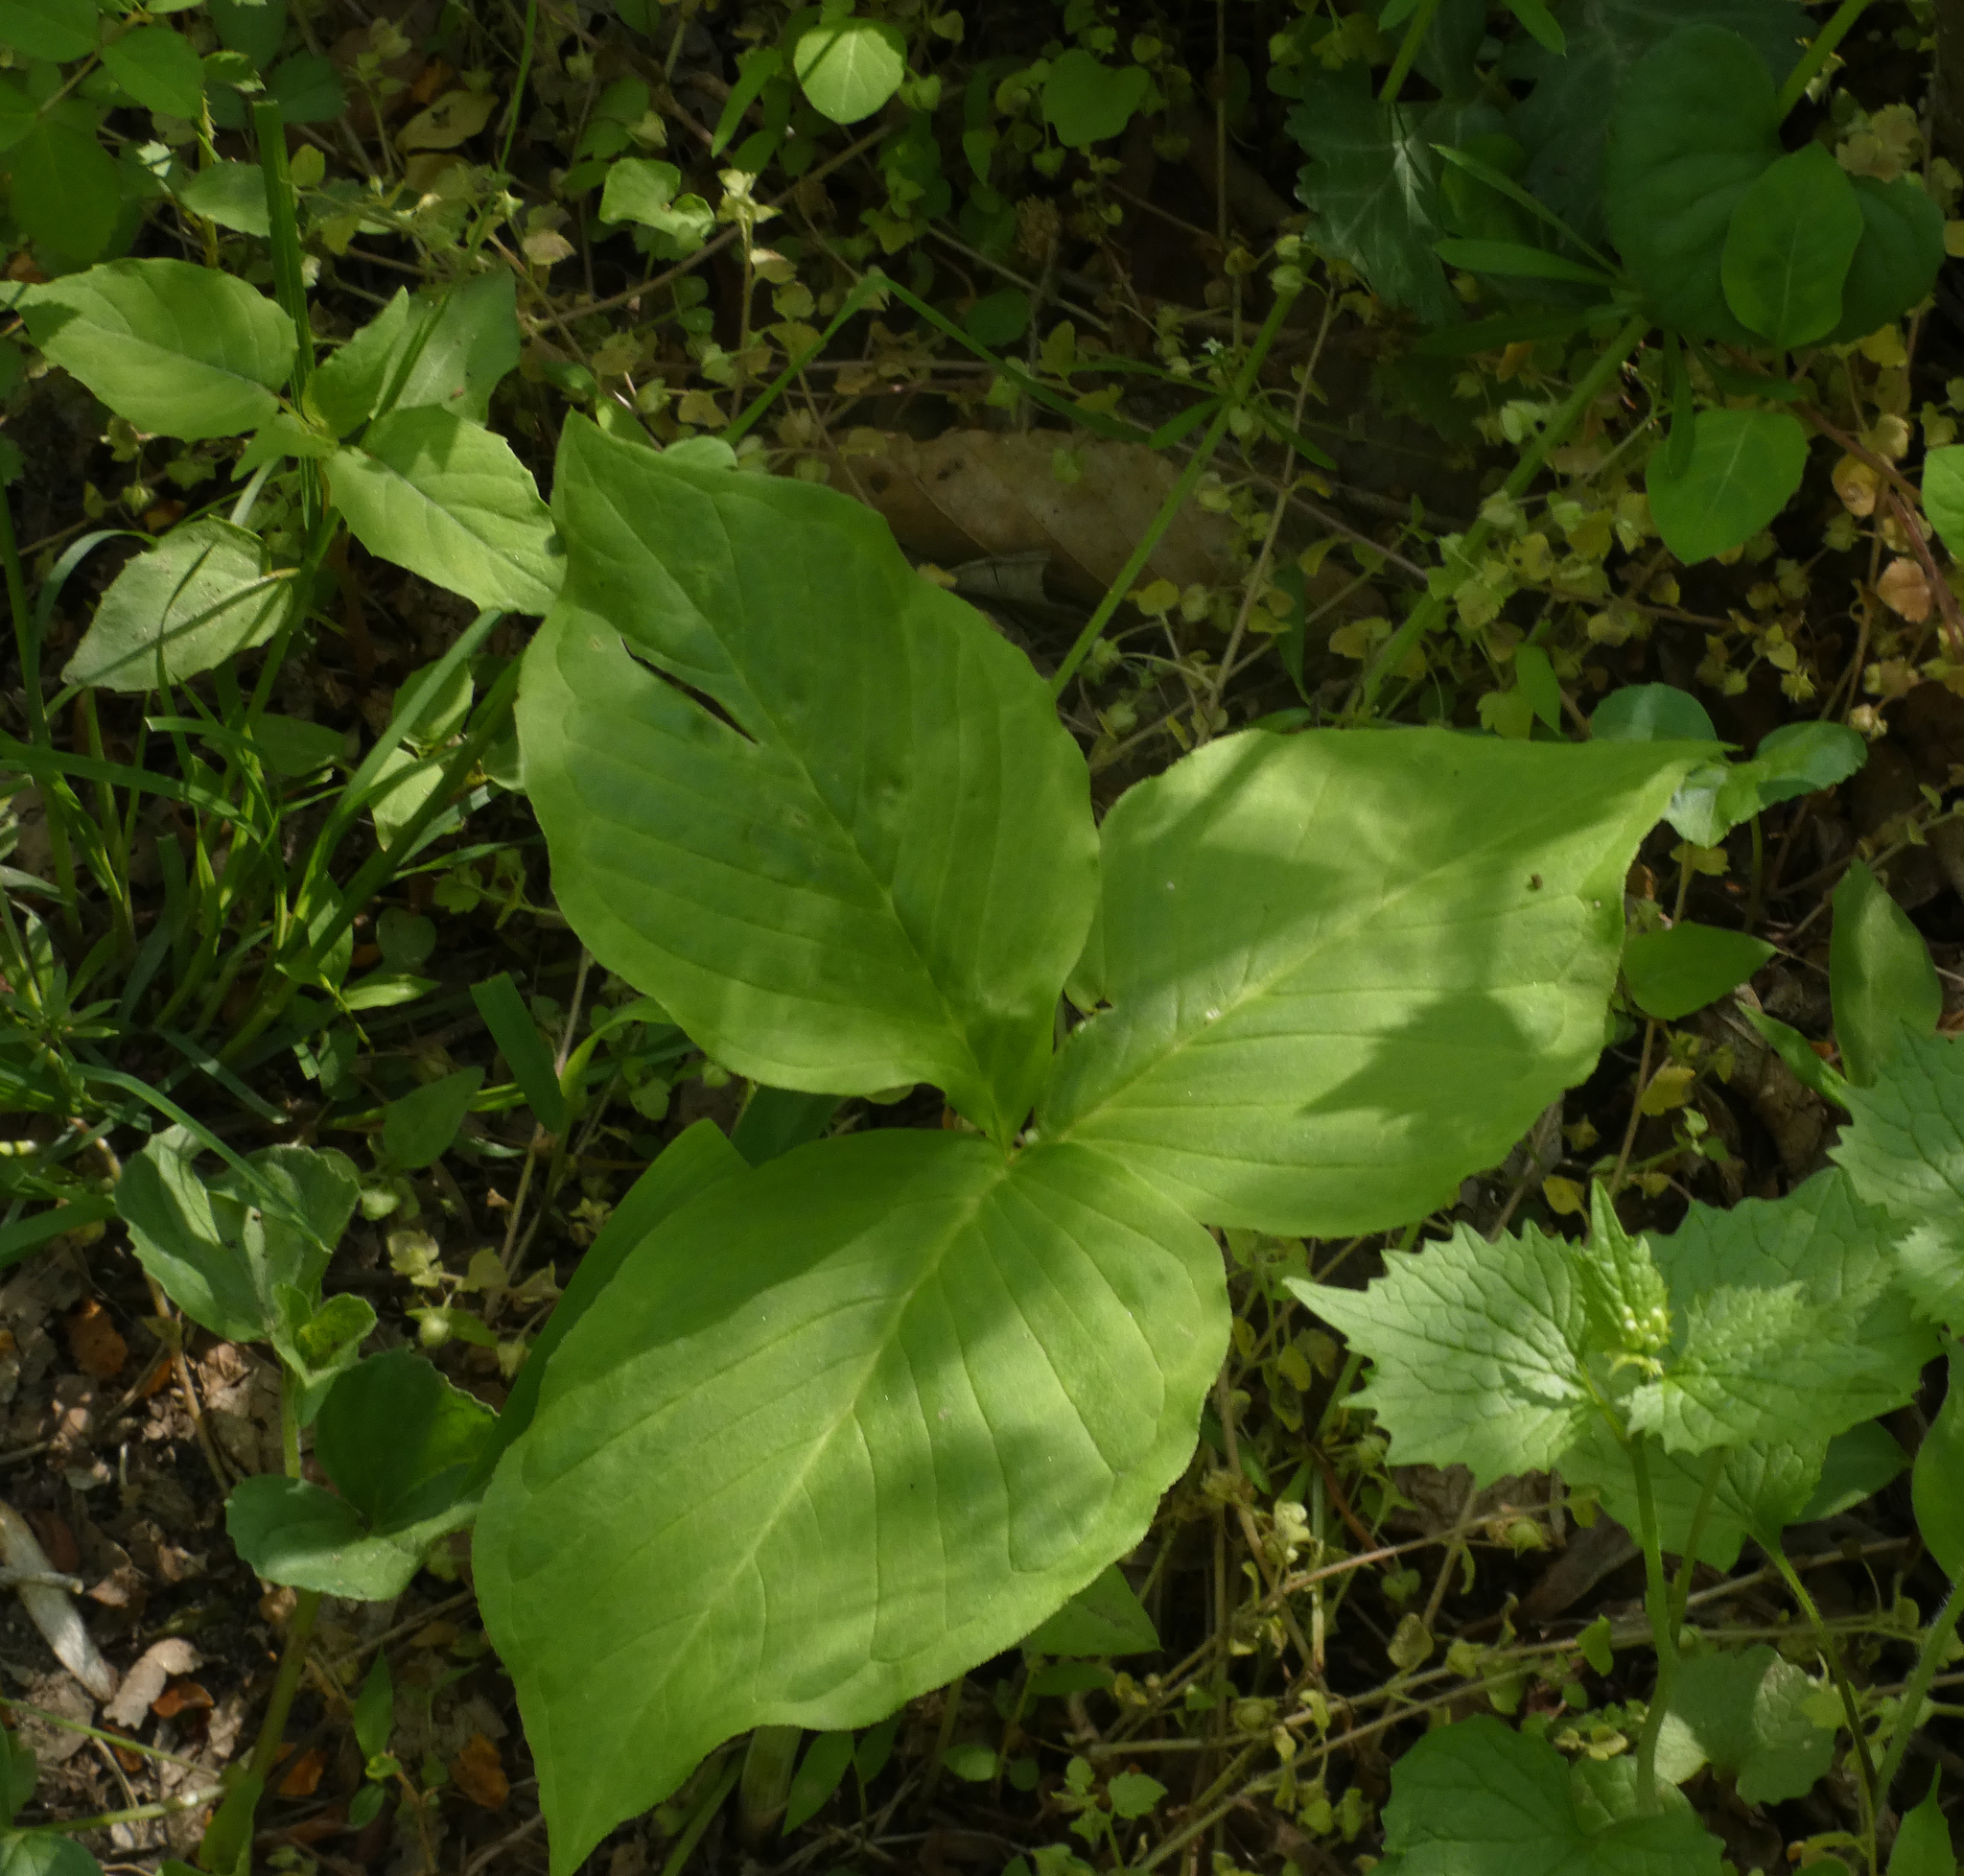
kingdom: Plantae
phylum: Tracheophyta
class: Liliopsida
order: Alismatales
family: Araceae
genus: Arisaema
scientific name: Arisaema triphyllum
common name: Jack-in-the-pulpit
